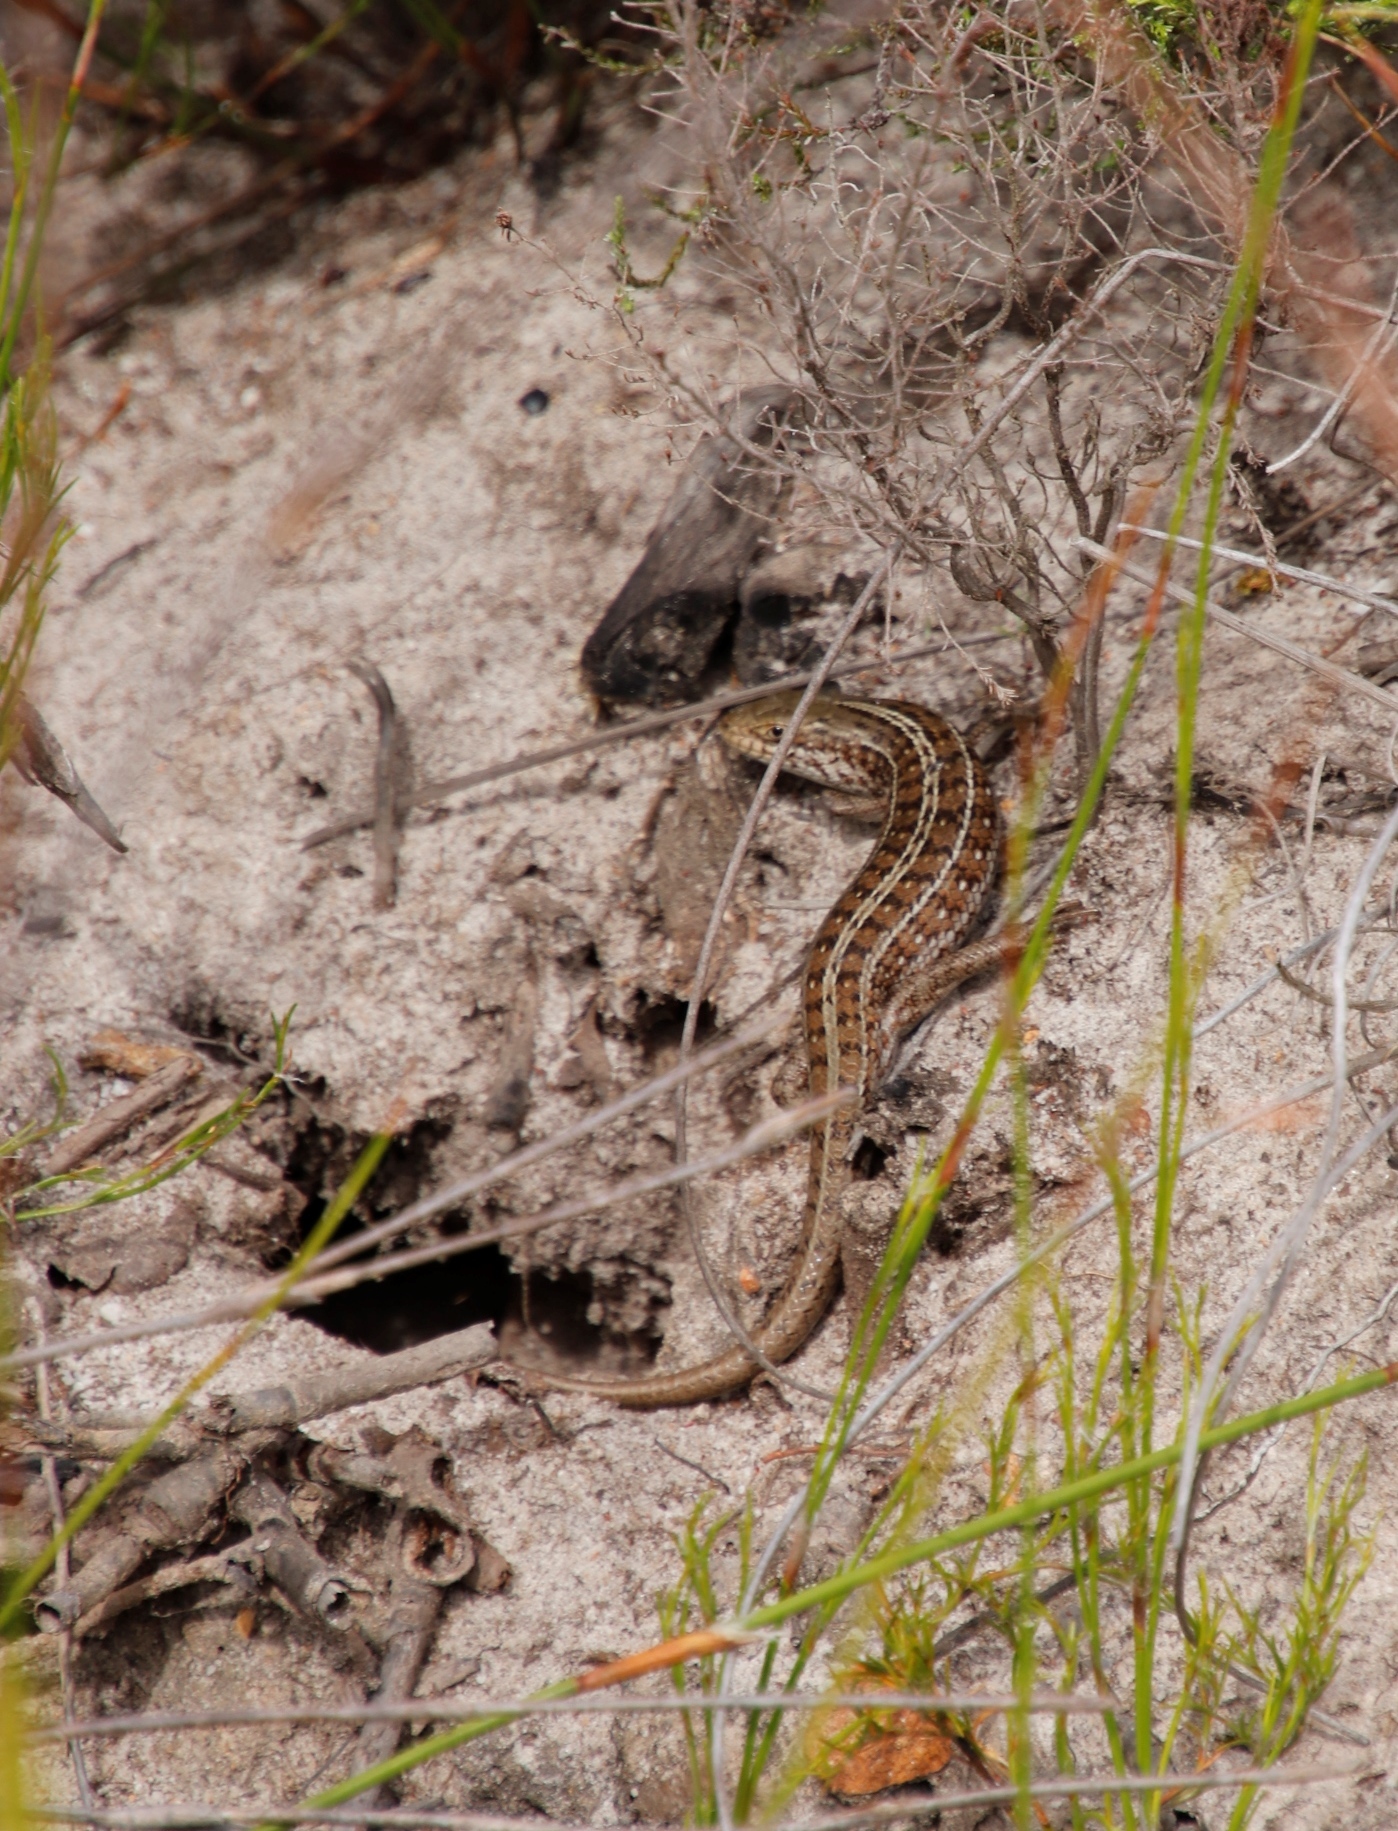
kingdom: Animalia
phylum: Chordata
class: Squamata
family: Scincidae
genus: Trachylepis
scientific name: Trachylepis capensis
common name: Cape skink
